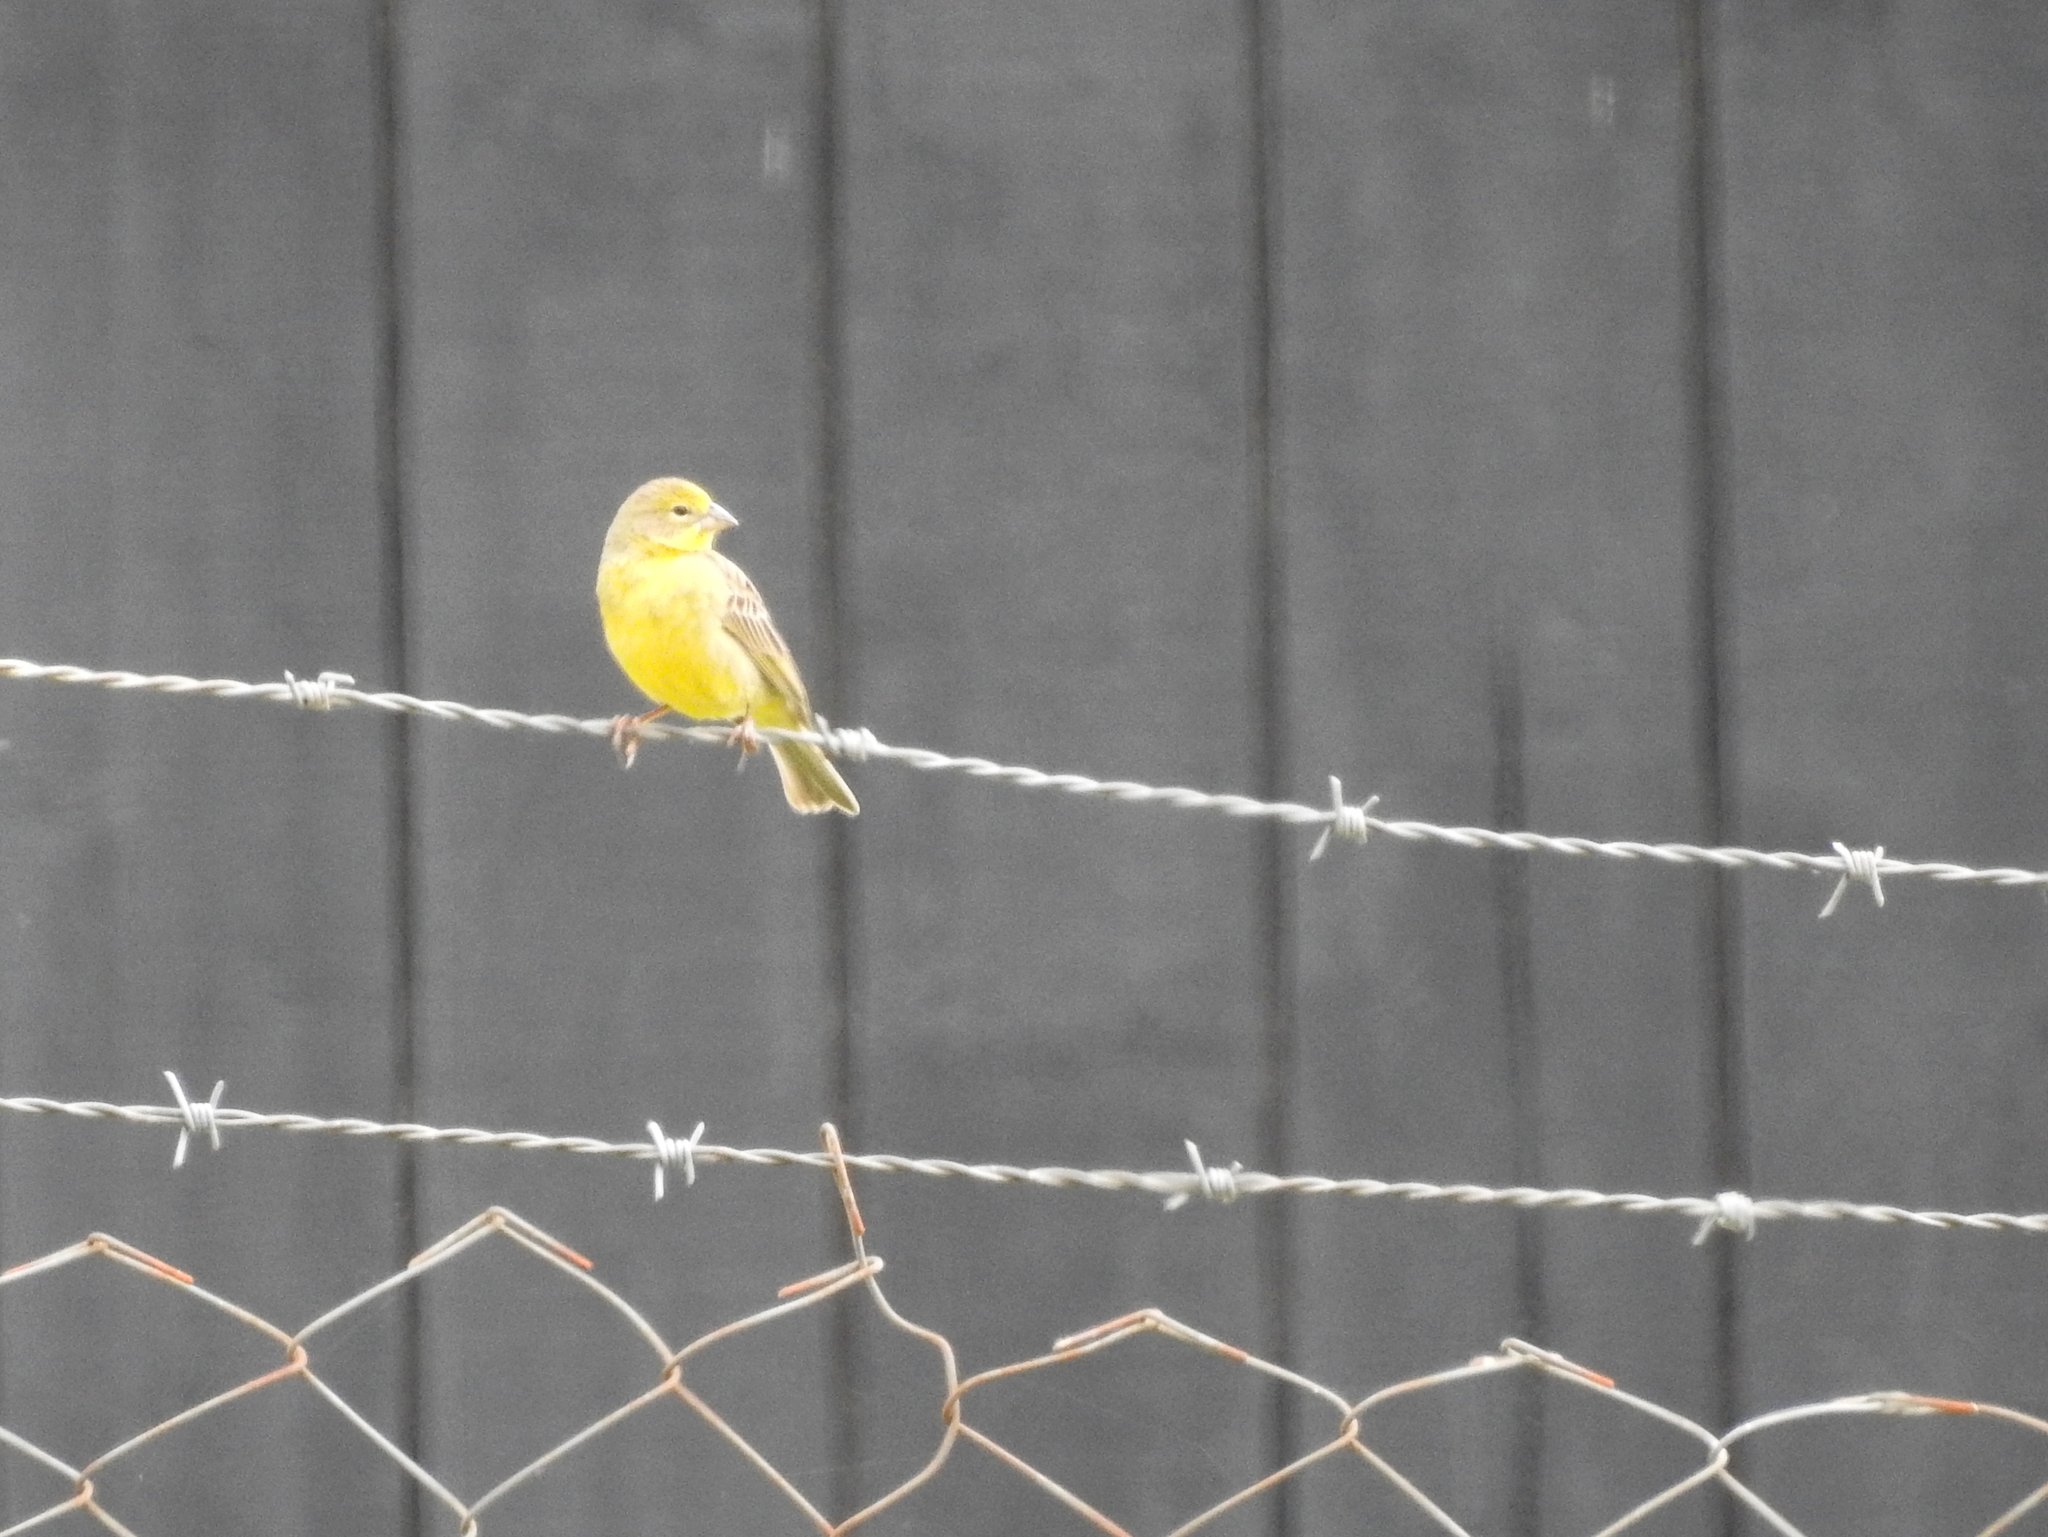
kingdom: Animalia
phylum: Chordata
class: Aves
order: Passeriformes
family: Thraupidae
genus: Sicalis
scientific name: Sicalis luteola
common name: Grassland yellow-finch
